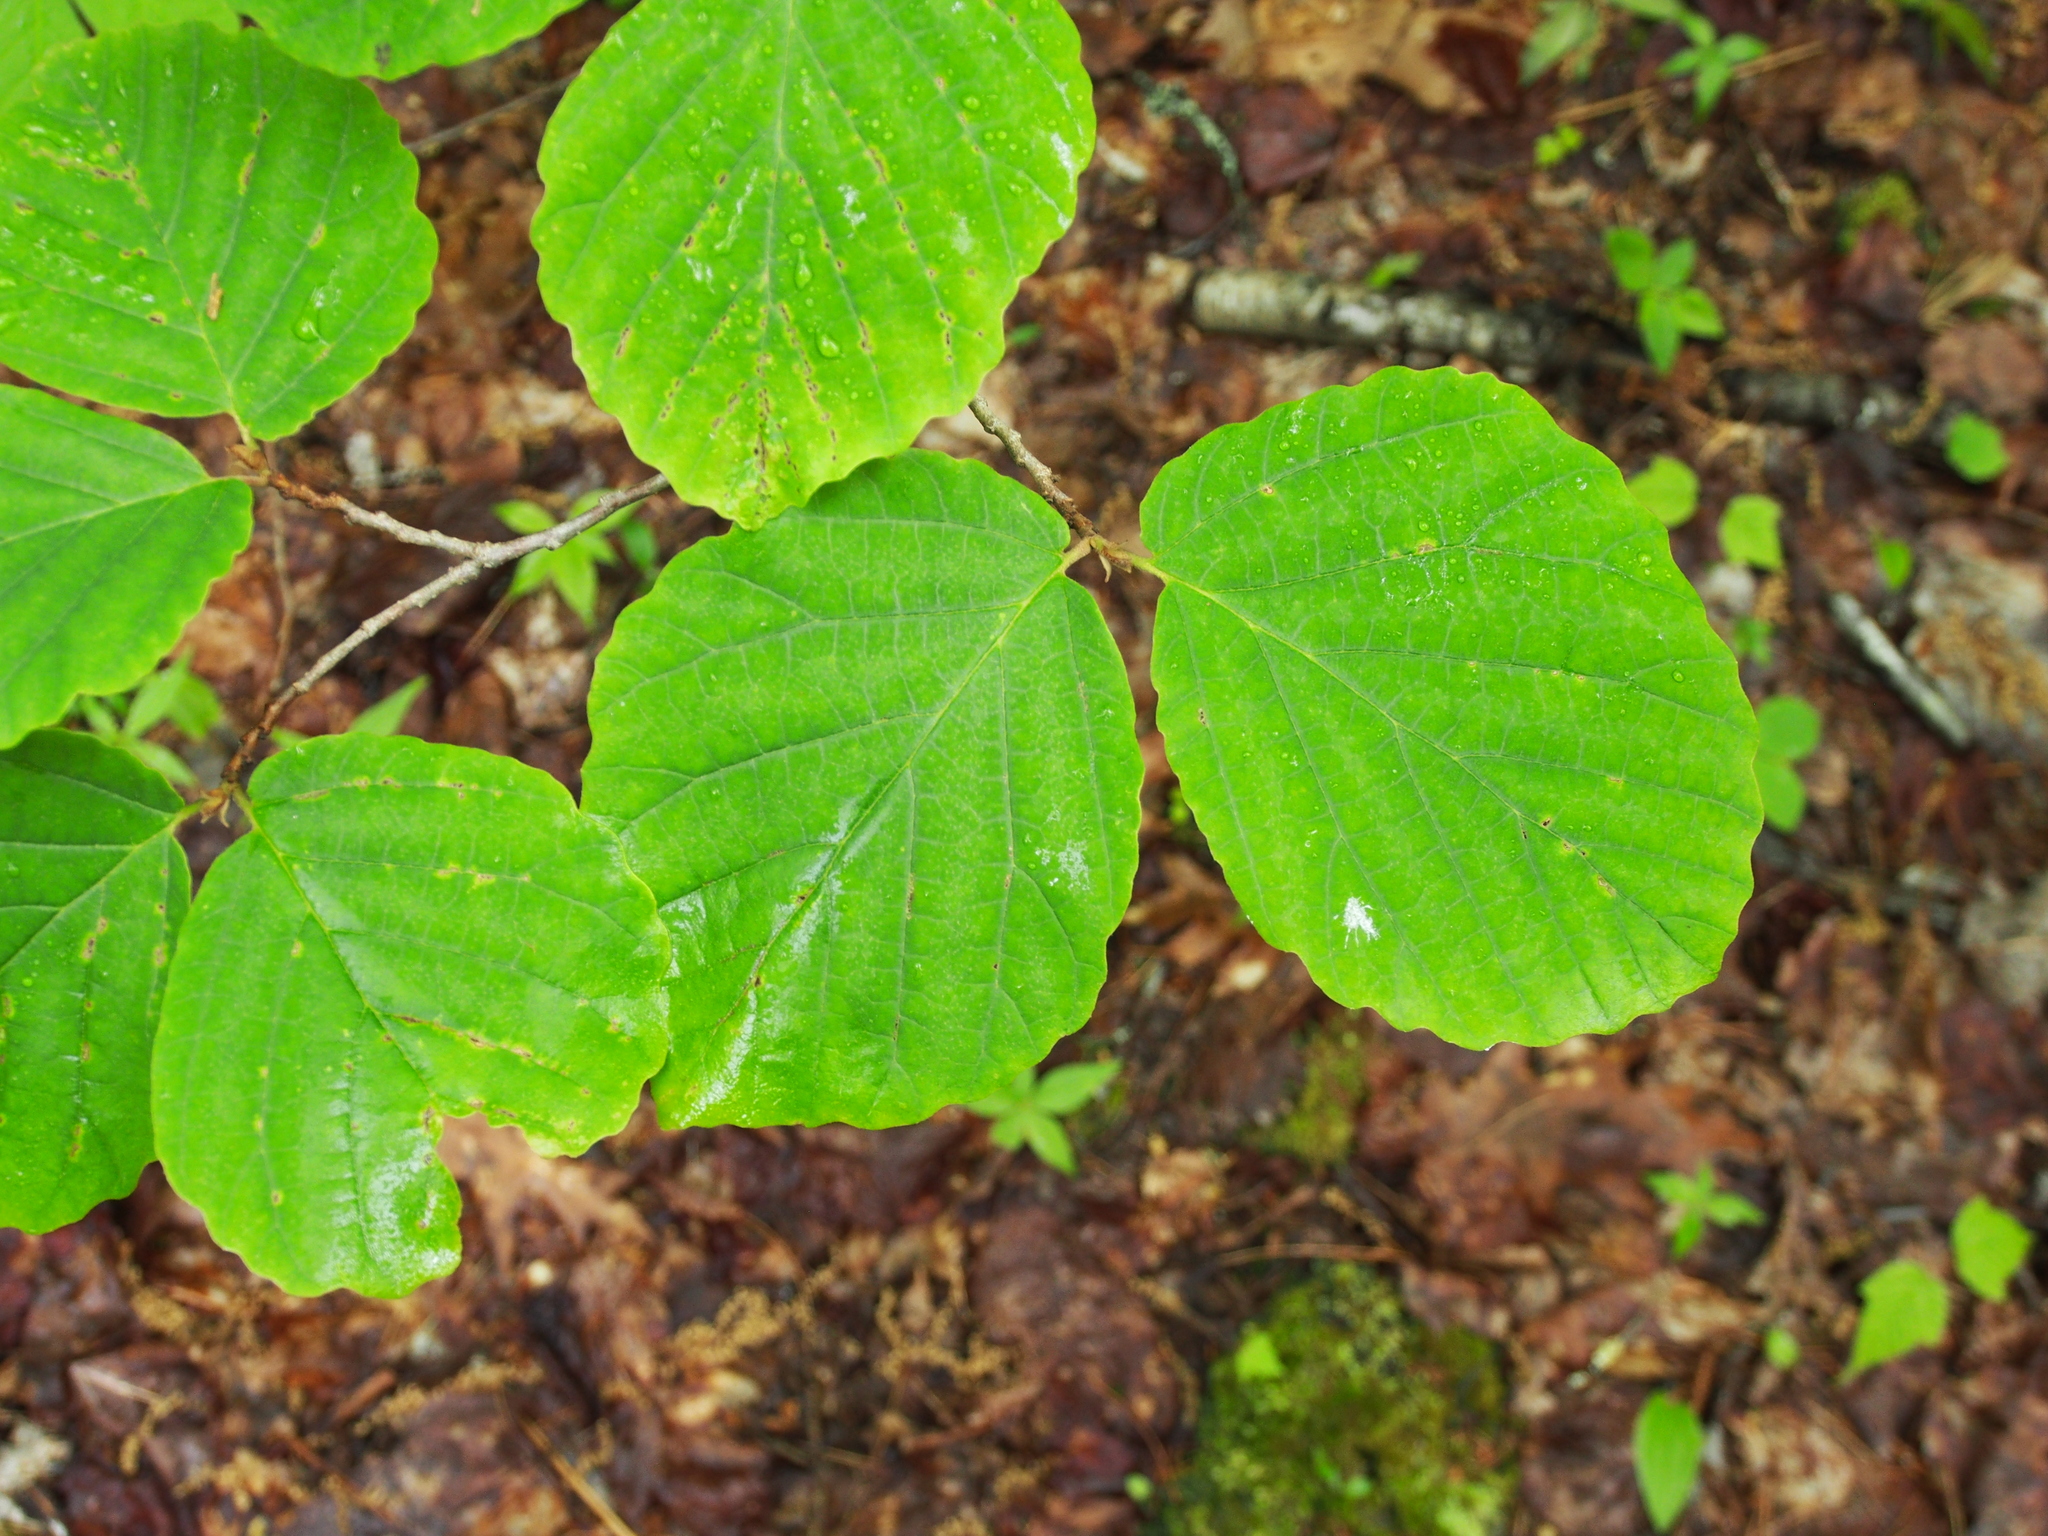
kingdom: Plantae
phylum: Tracheophyta
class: Magnoliopsida
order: Saxifragales
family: Hamamelidaceae
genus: Hamamelis
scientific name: Hamamelis virginiana
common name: Witch-hazel
